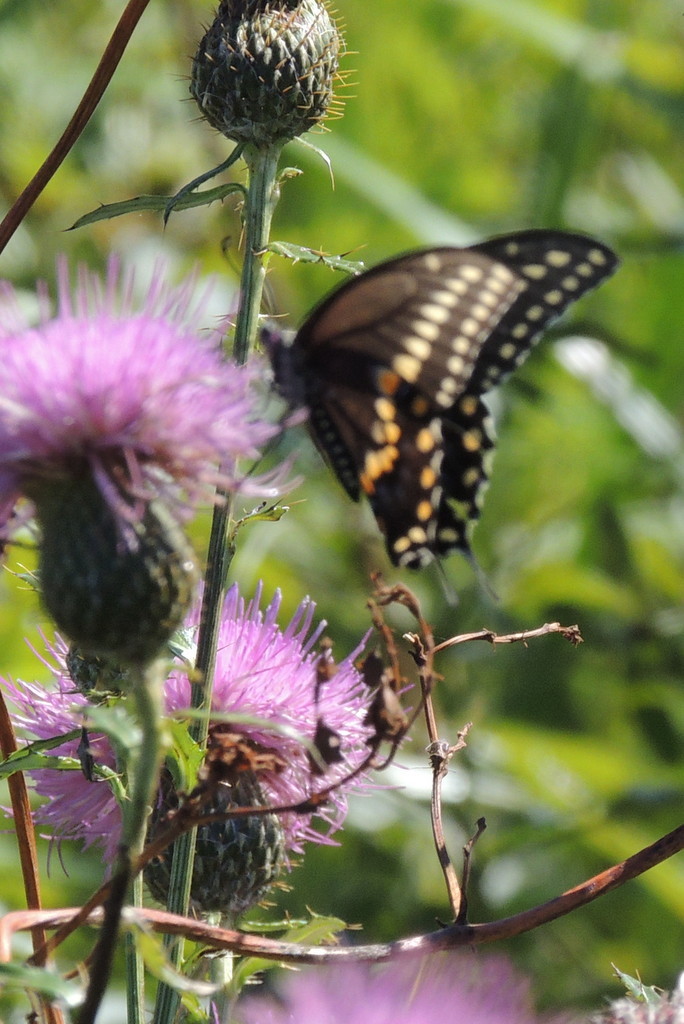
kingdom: Animalia
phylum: Arthropoda
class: Insecta
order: Lepidoptera
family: Papilionidae
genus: Papilio
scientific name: Papilio polyxenes
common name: Black swallowtail
